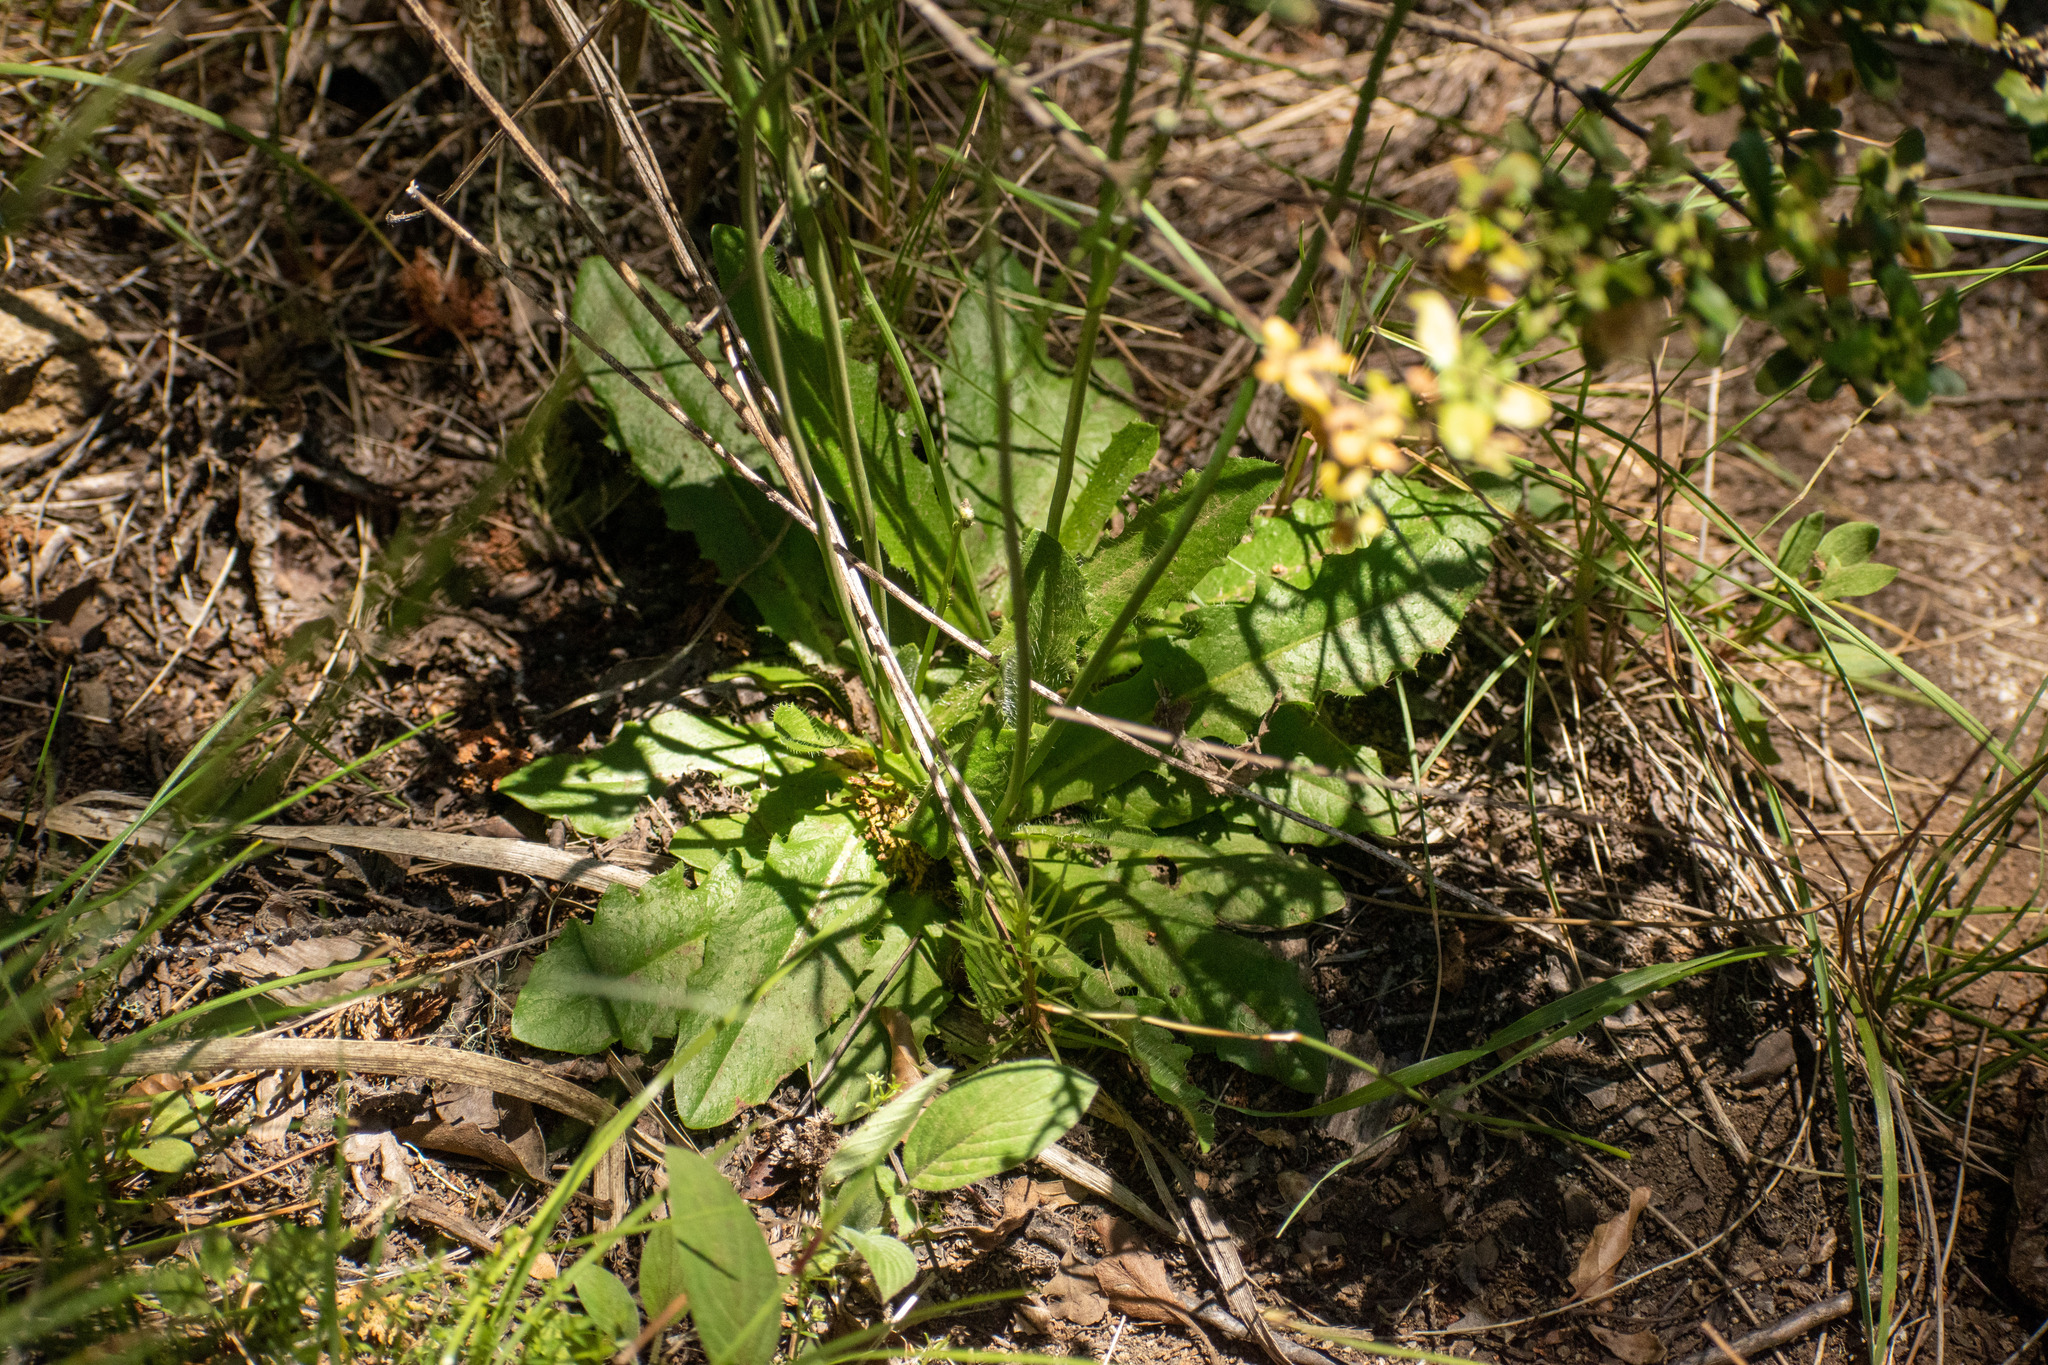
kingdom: Plantae
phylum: Tracheophyta
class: Magnoliopsida
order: Asterales
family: Asteraceae
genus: Hypochaeris
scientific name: Hypochaeris radicata
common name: Flatweed
